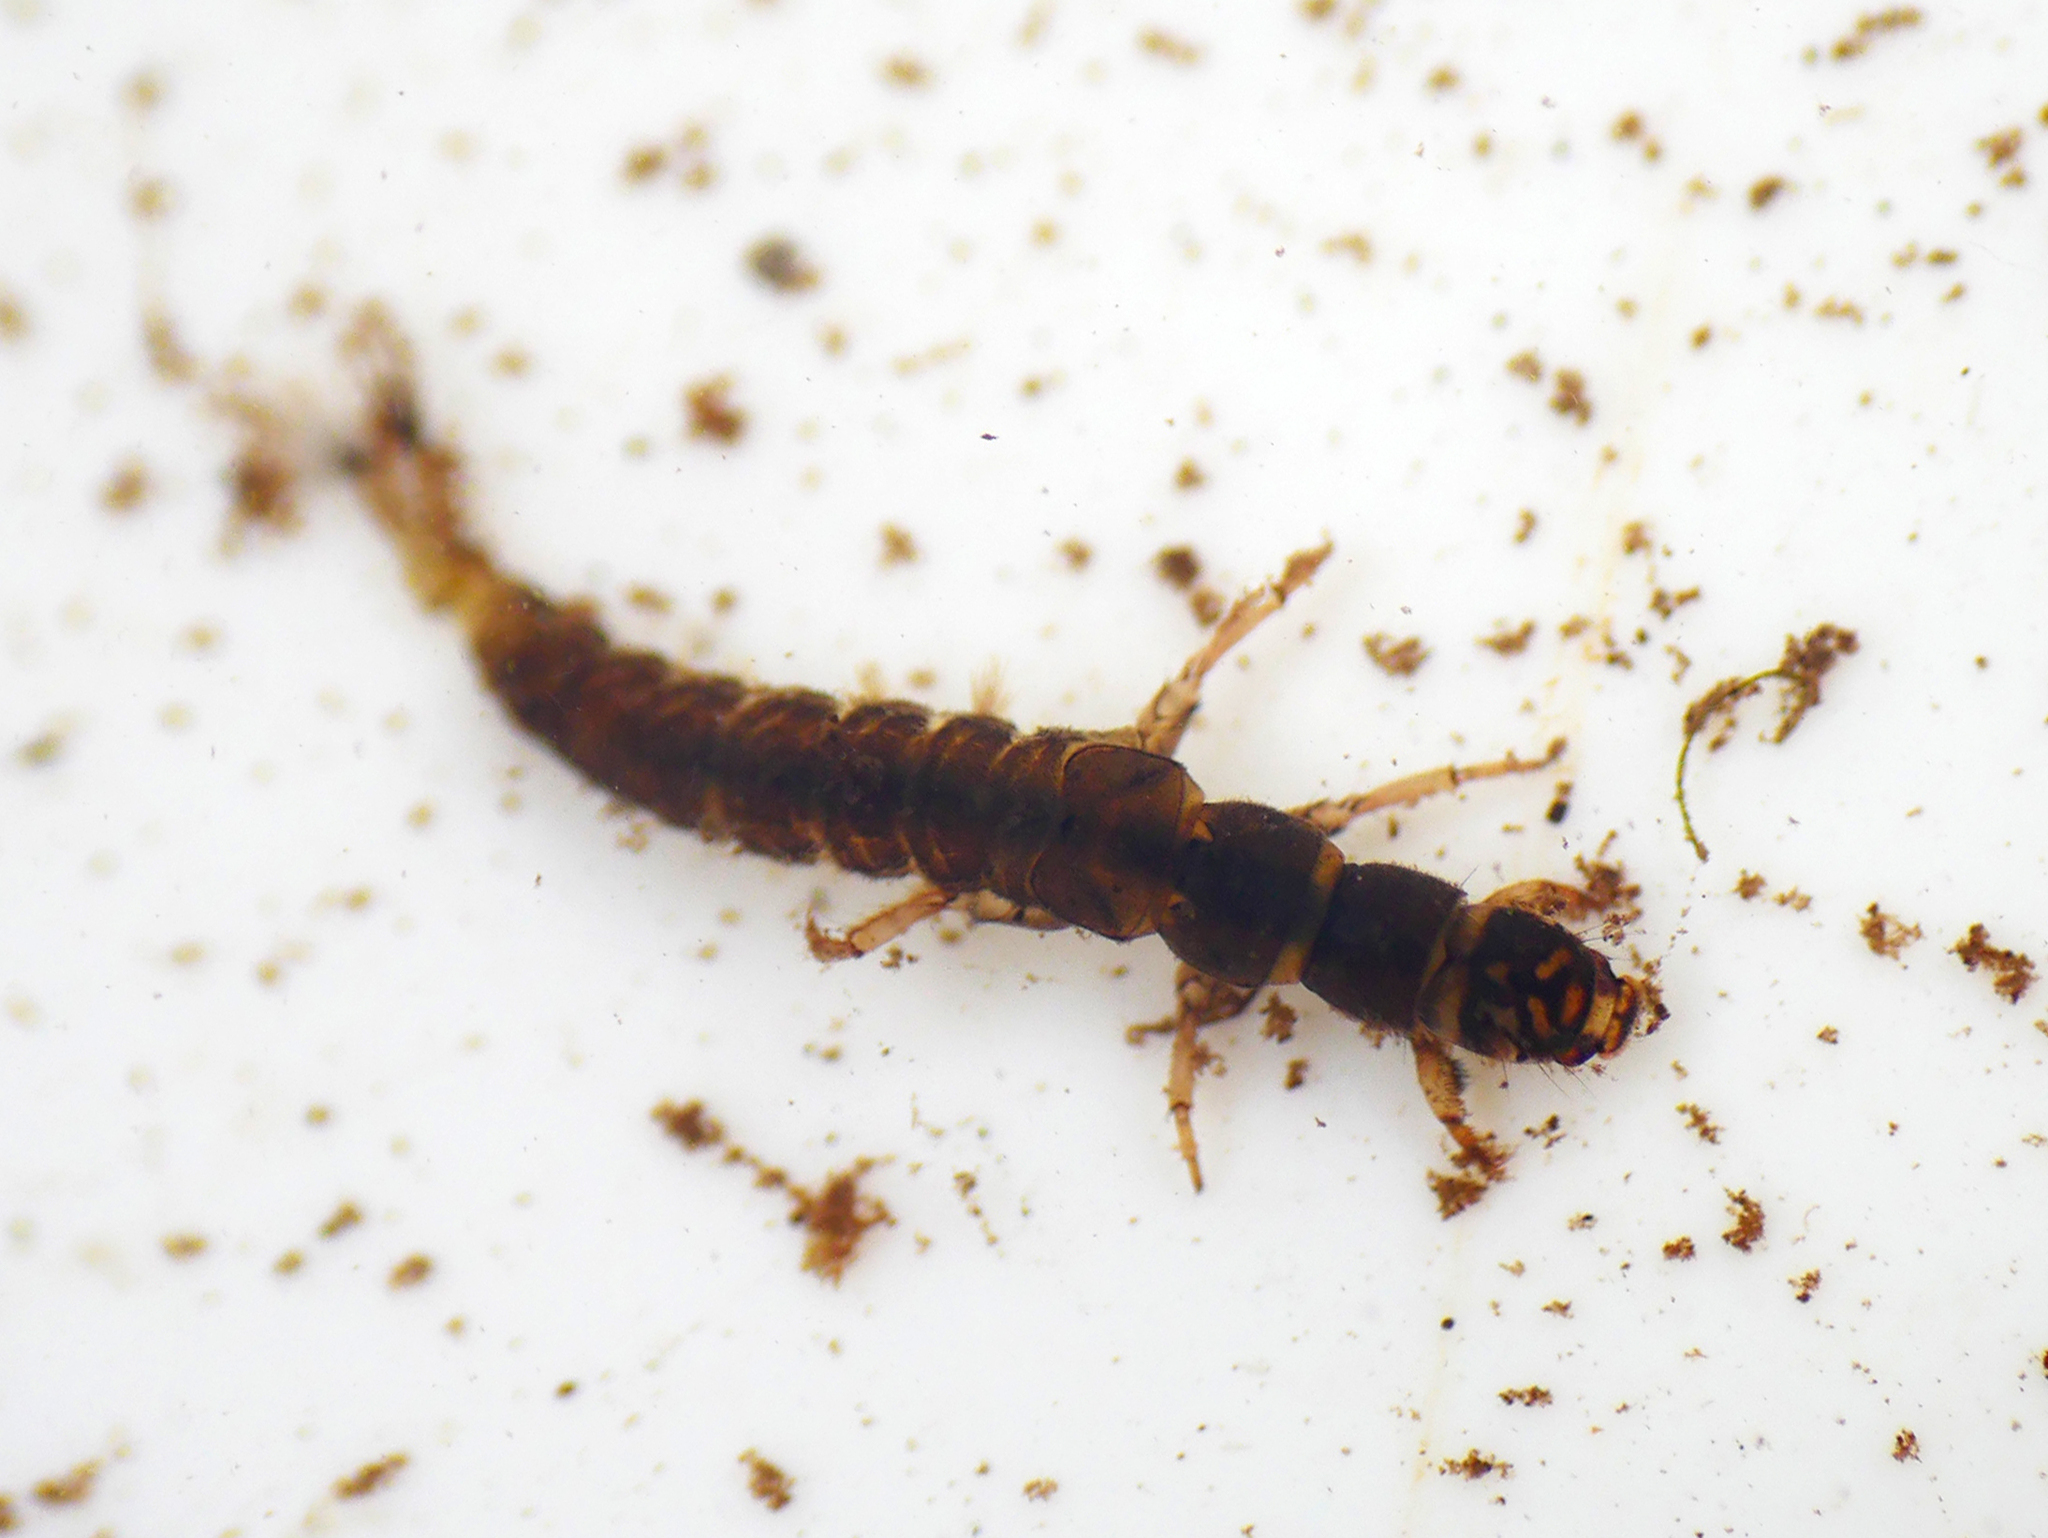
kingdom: Animalia
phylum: Arthropoda
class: Insecta
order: Trichoptera
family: Hydropsychidae
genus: Hydropsyche
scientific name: Hydropsyche pellucidula
